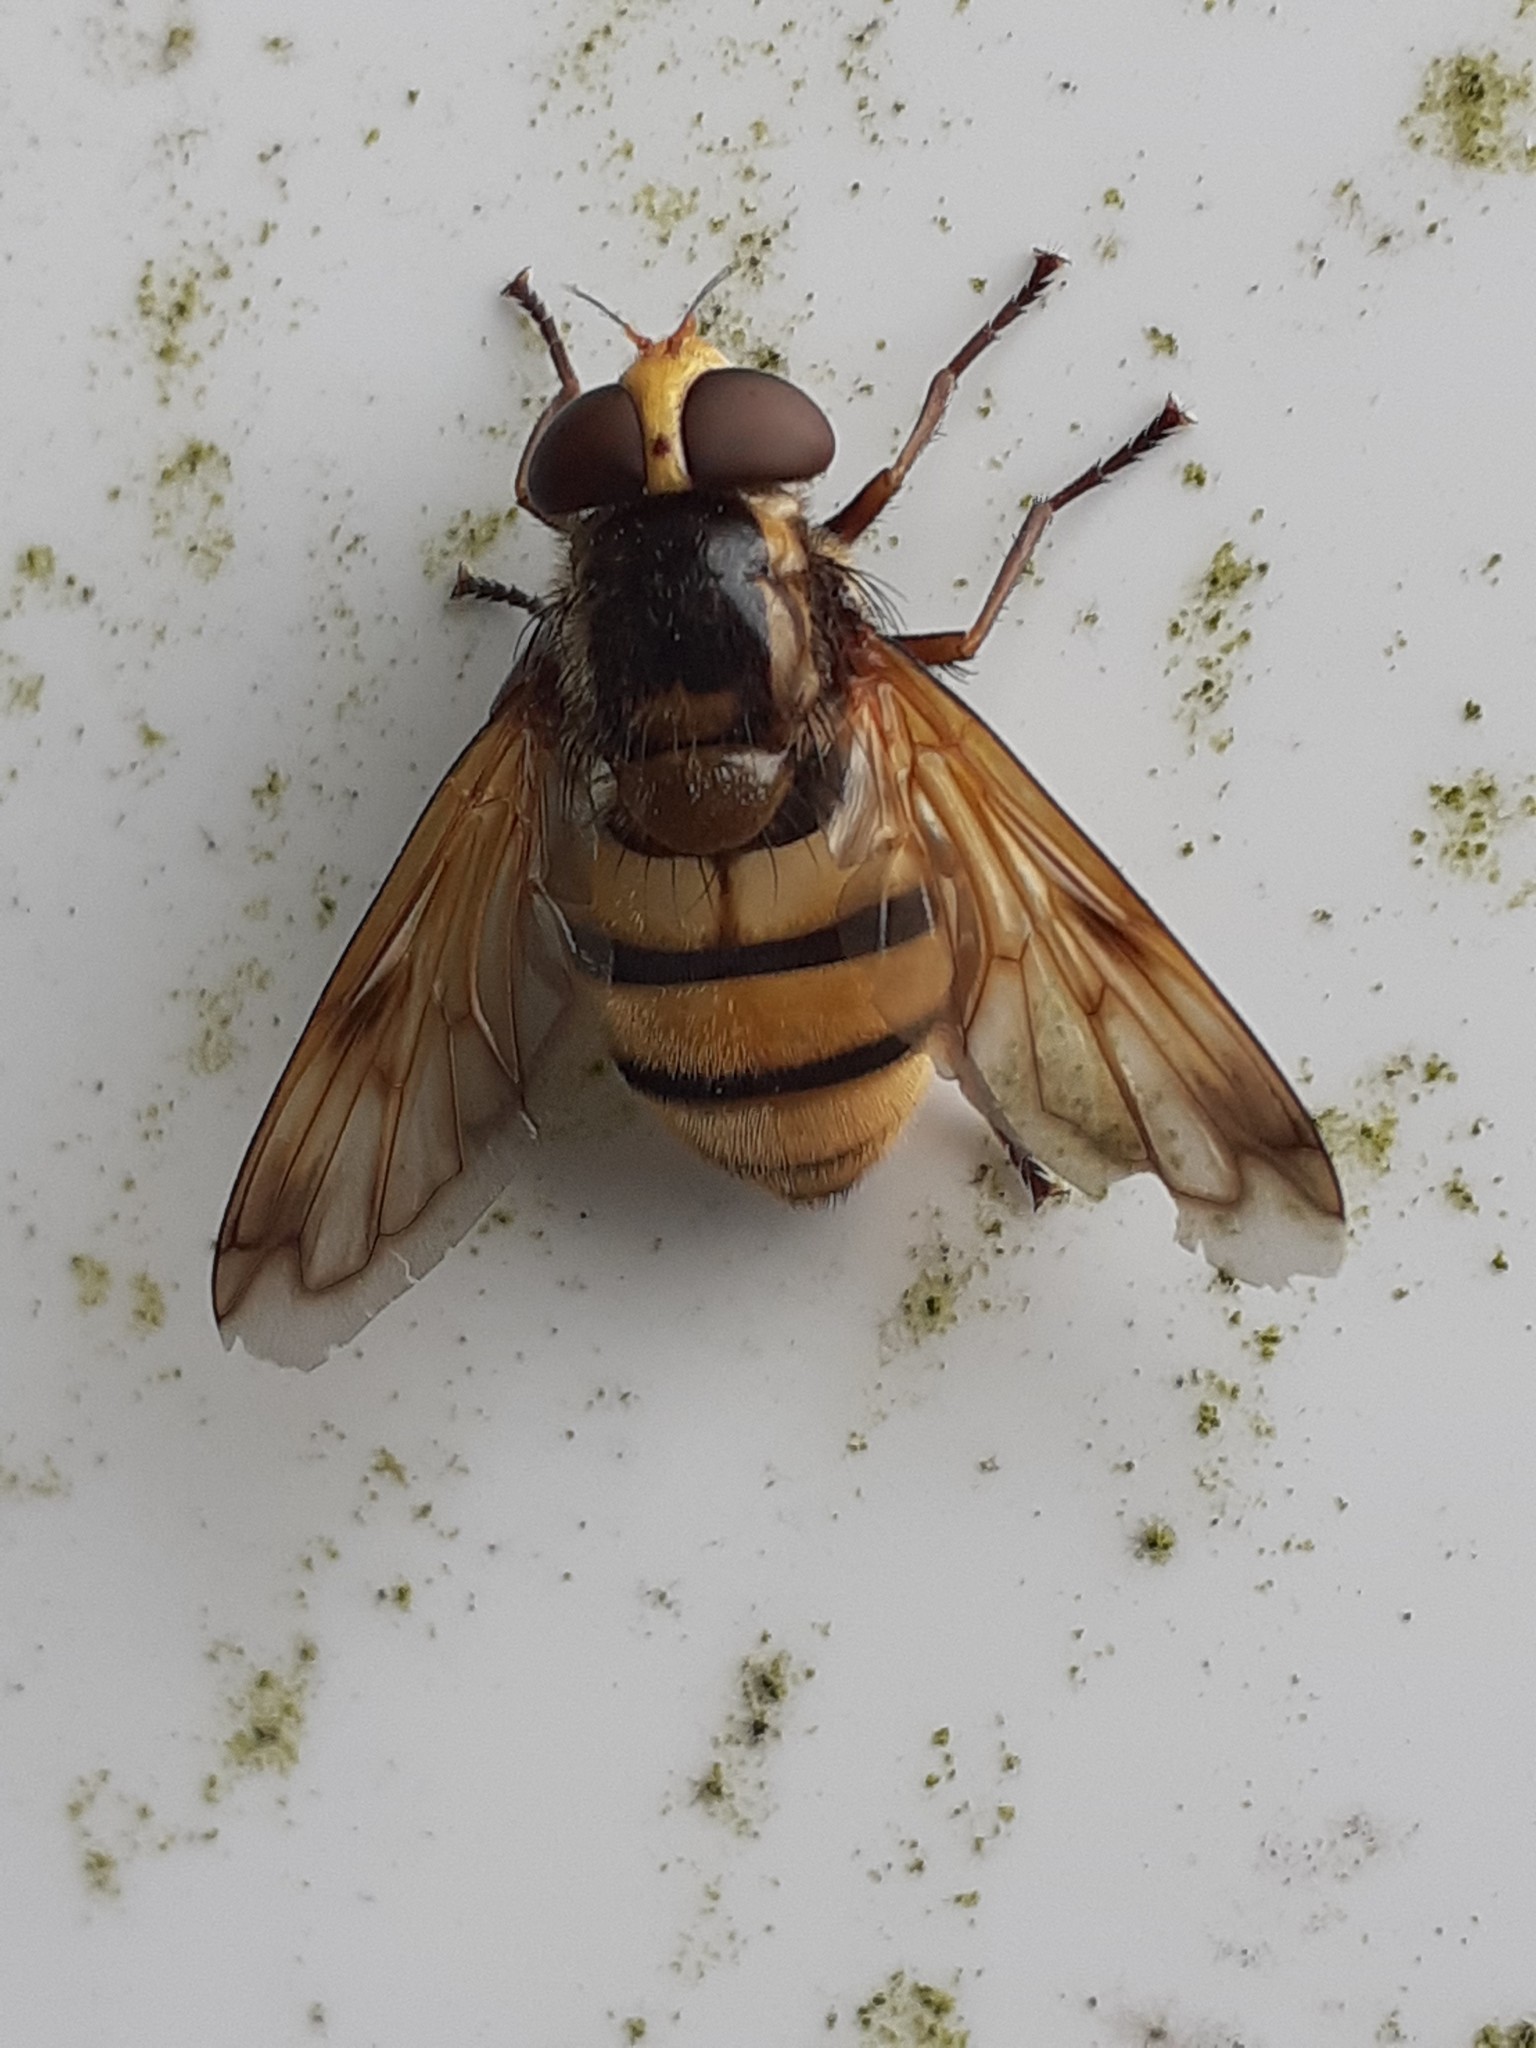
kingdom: Animalia
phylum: Arthropoda
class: Insecta
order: Diptera
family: Syrphidae
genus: Volucella
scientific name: Volucella inanis
